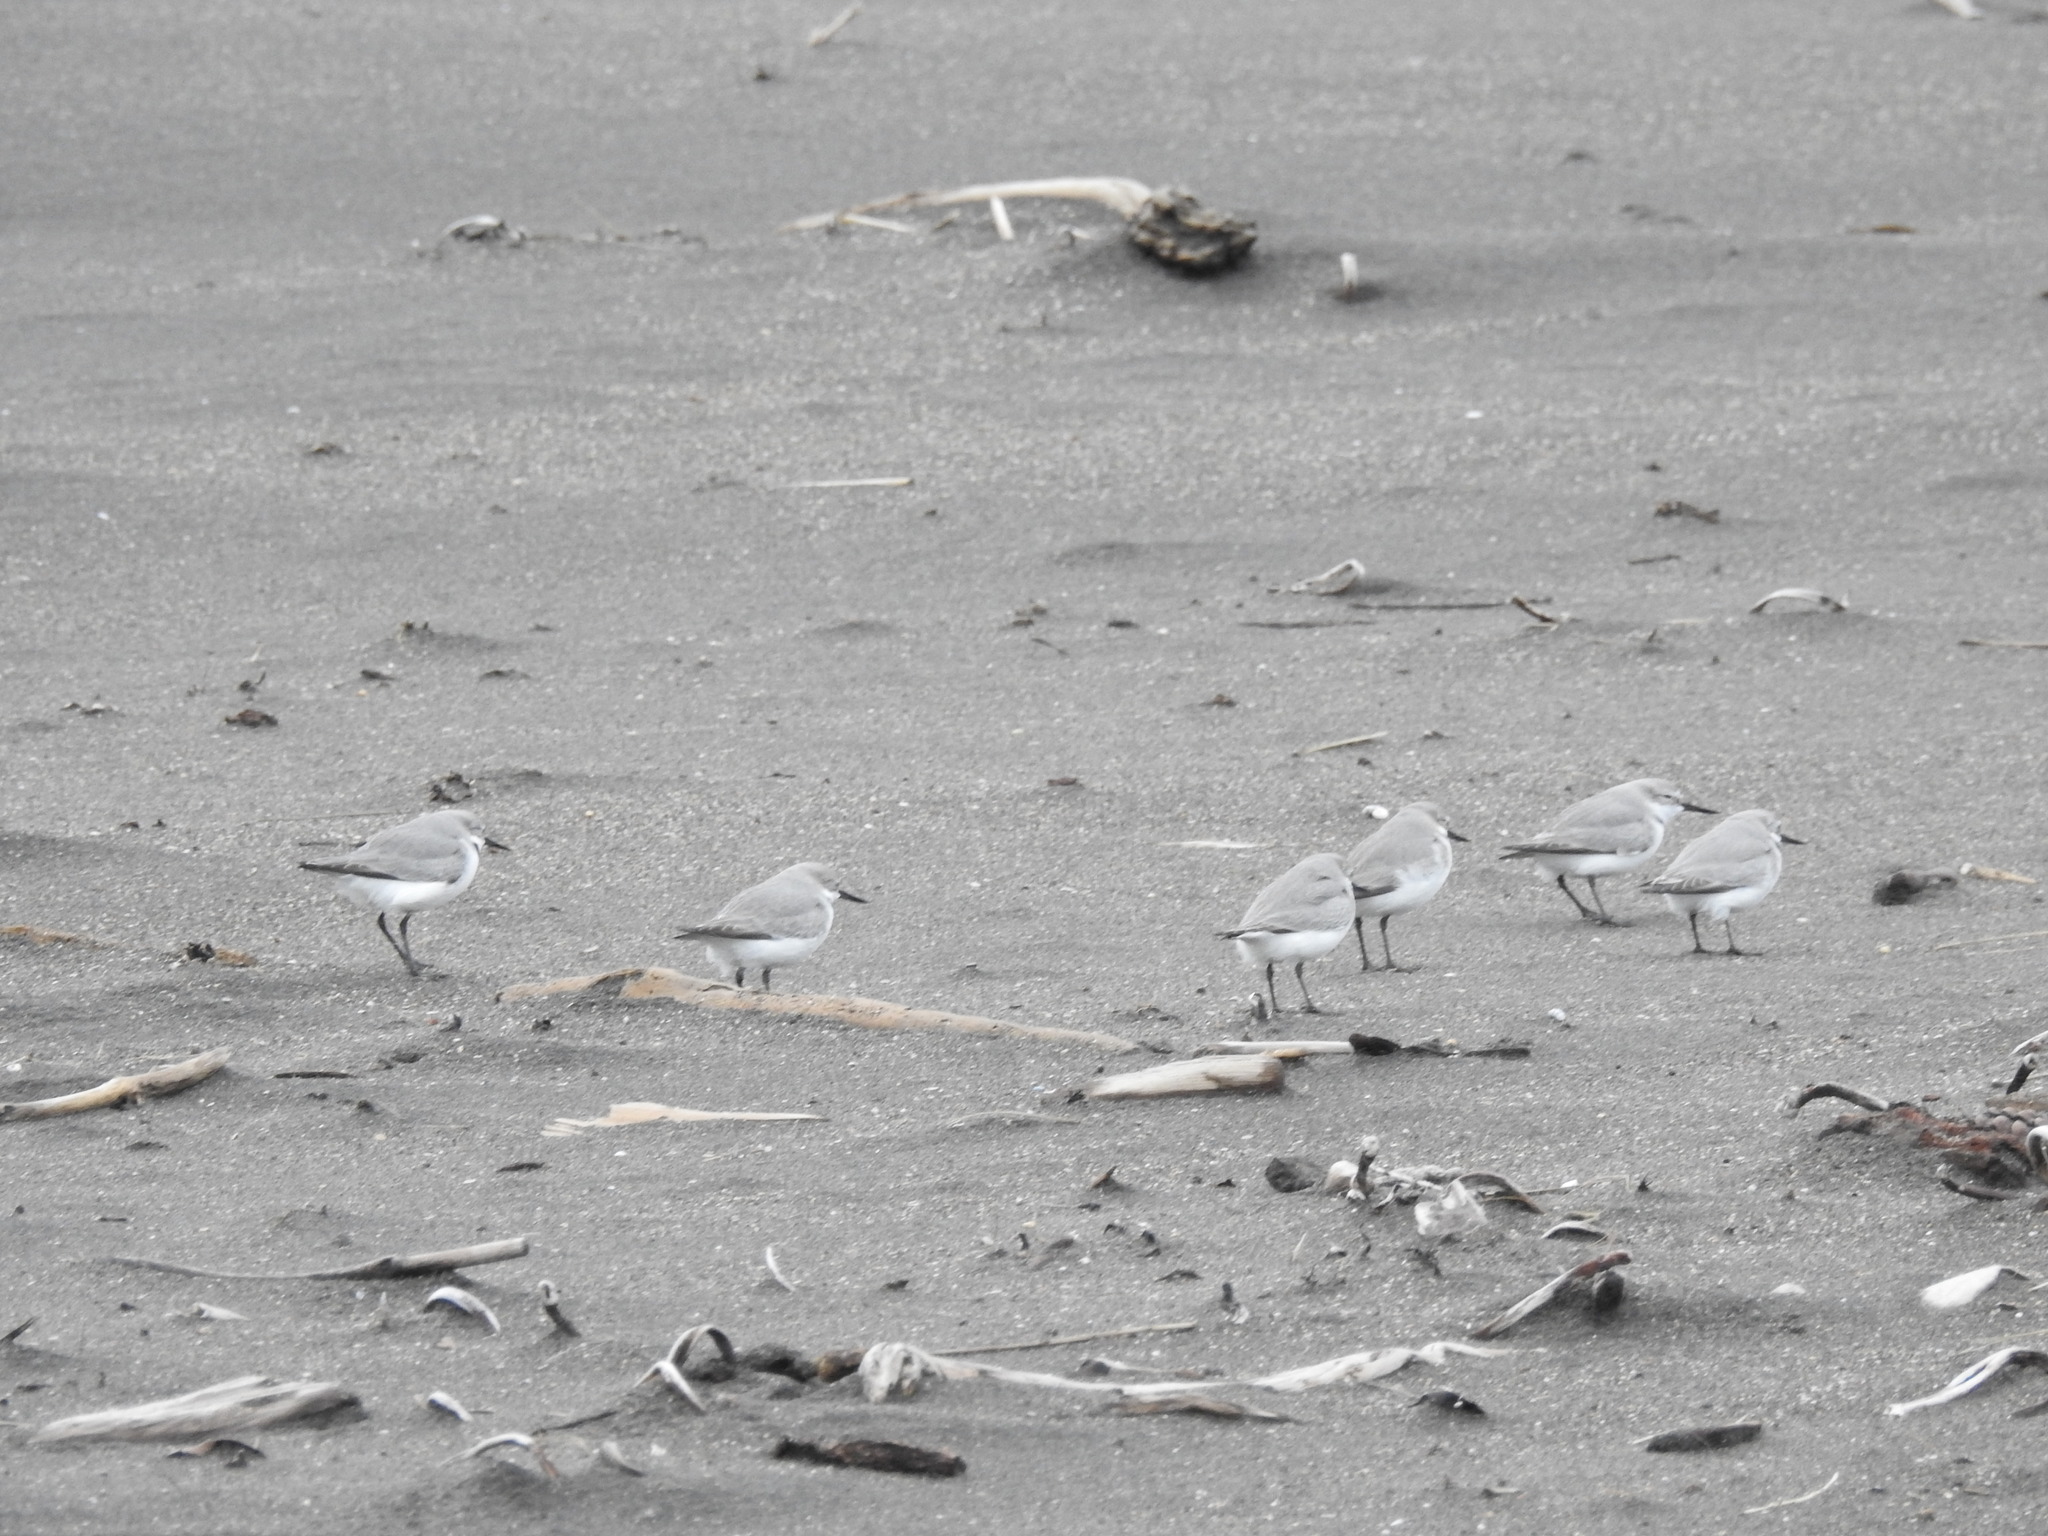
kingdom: Animalia
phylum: Chordata
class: Aves
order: Charadriiformes
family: Charadriidae
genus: Anarhynchus
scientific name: Anarhynchus frontalis
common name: Wrybill
